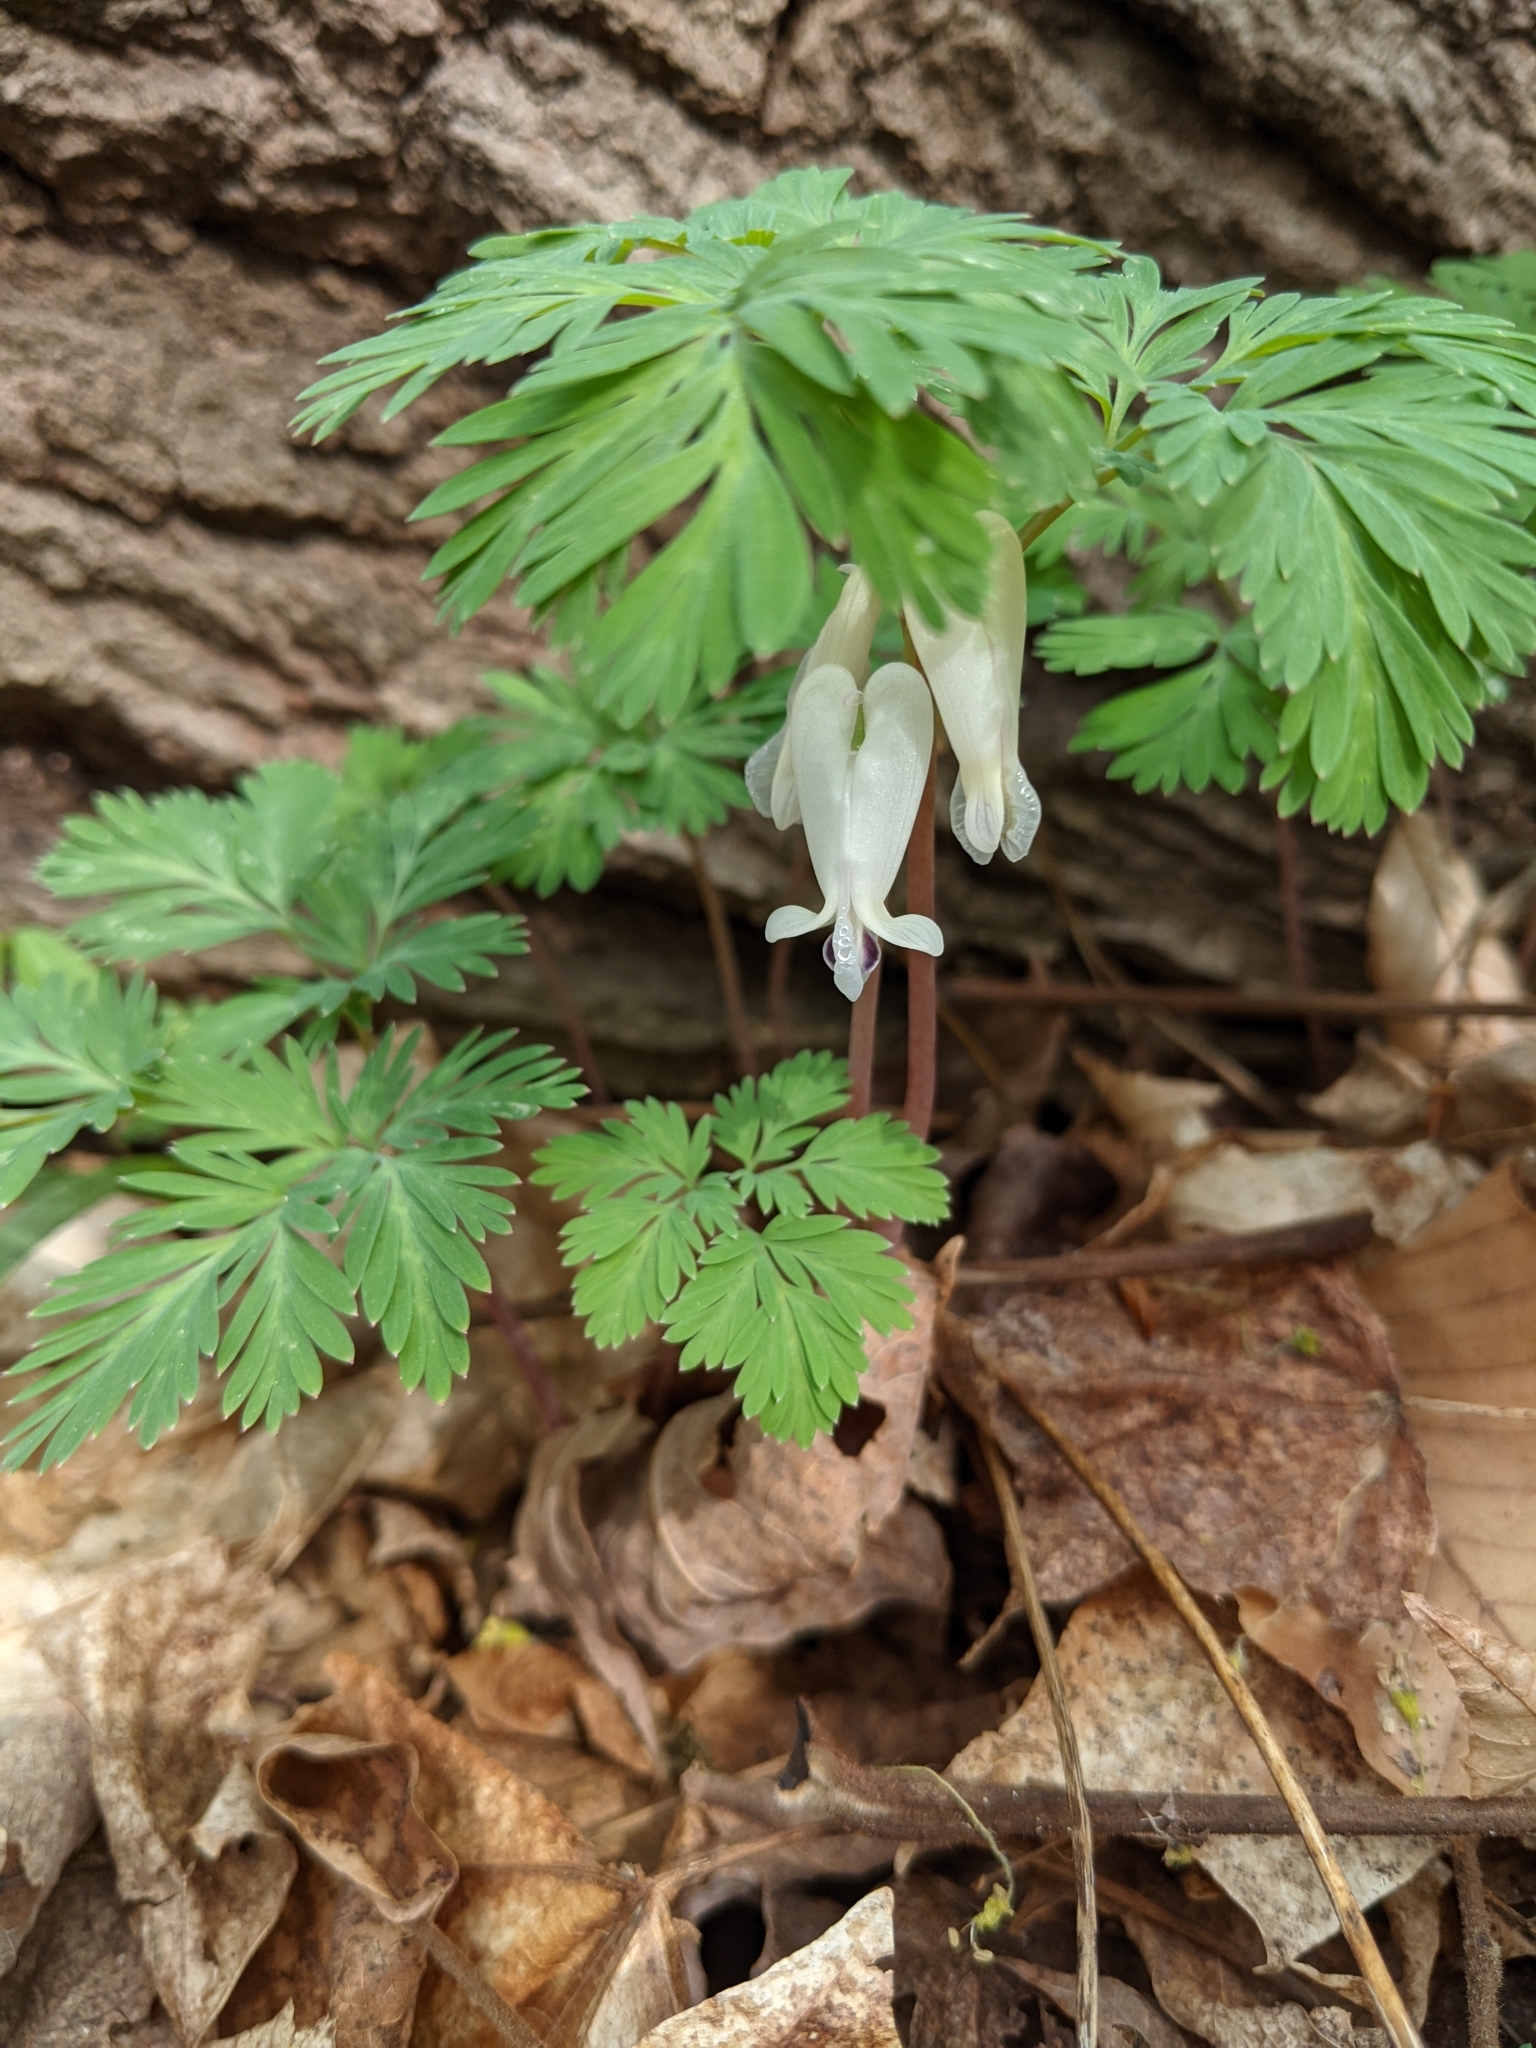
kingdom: Plantae
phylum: Tracheophyta
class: Magnoliopsida
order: Ranunculales
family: Papaveraceae
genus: Dicentra
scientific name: Dicentra canadensis
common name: Squirrel-corn
